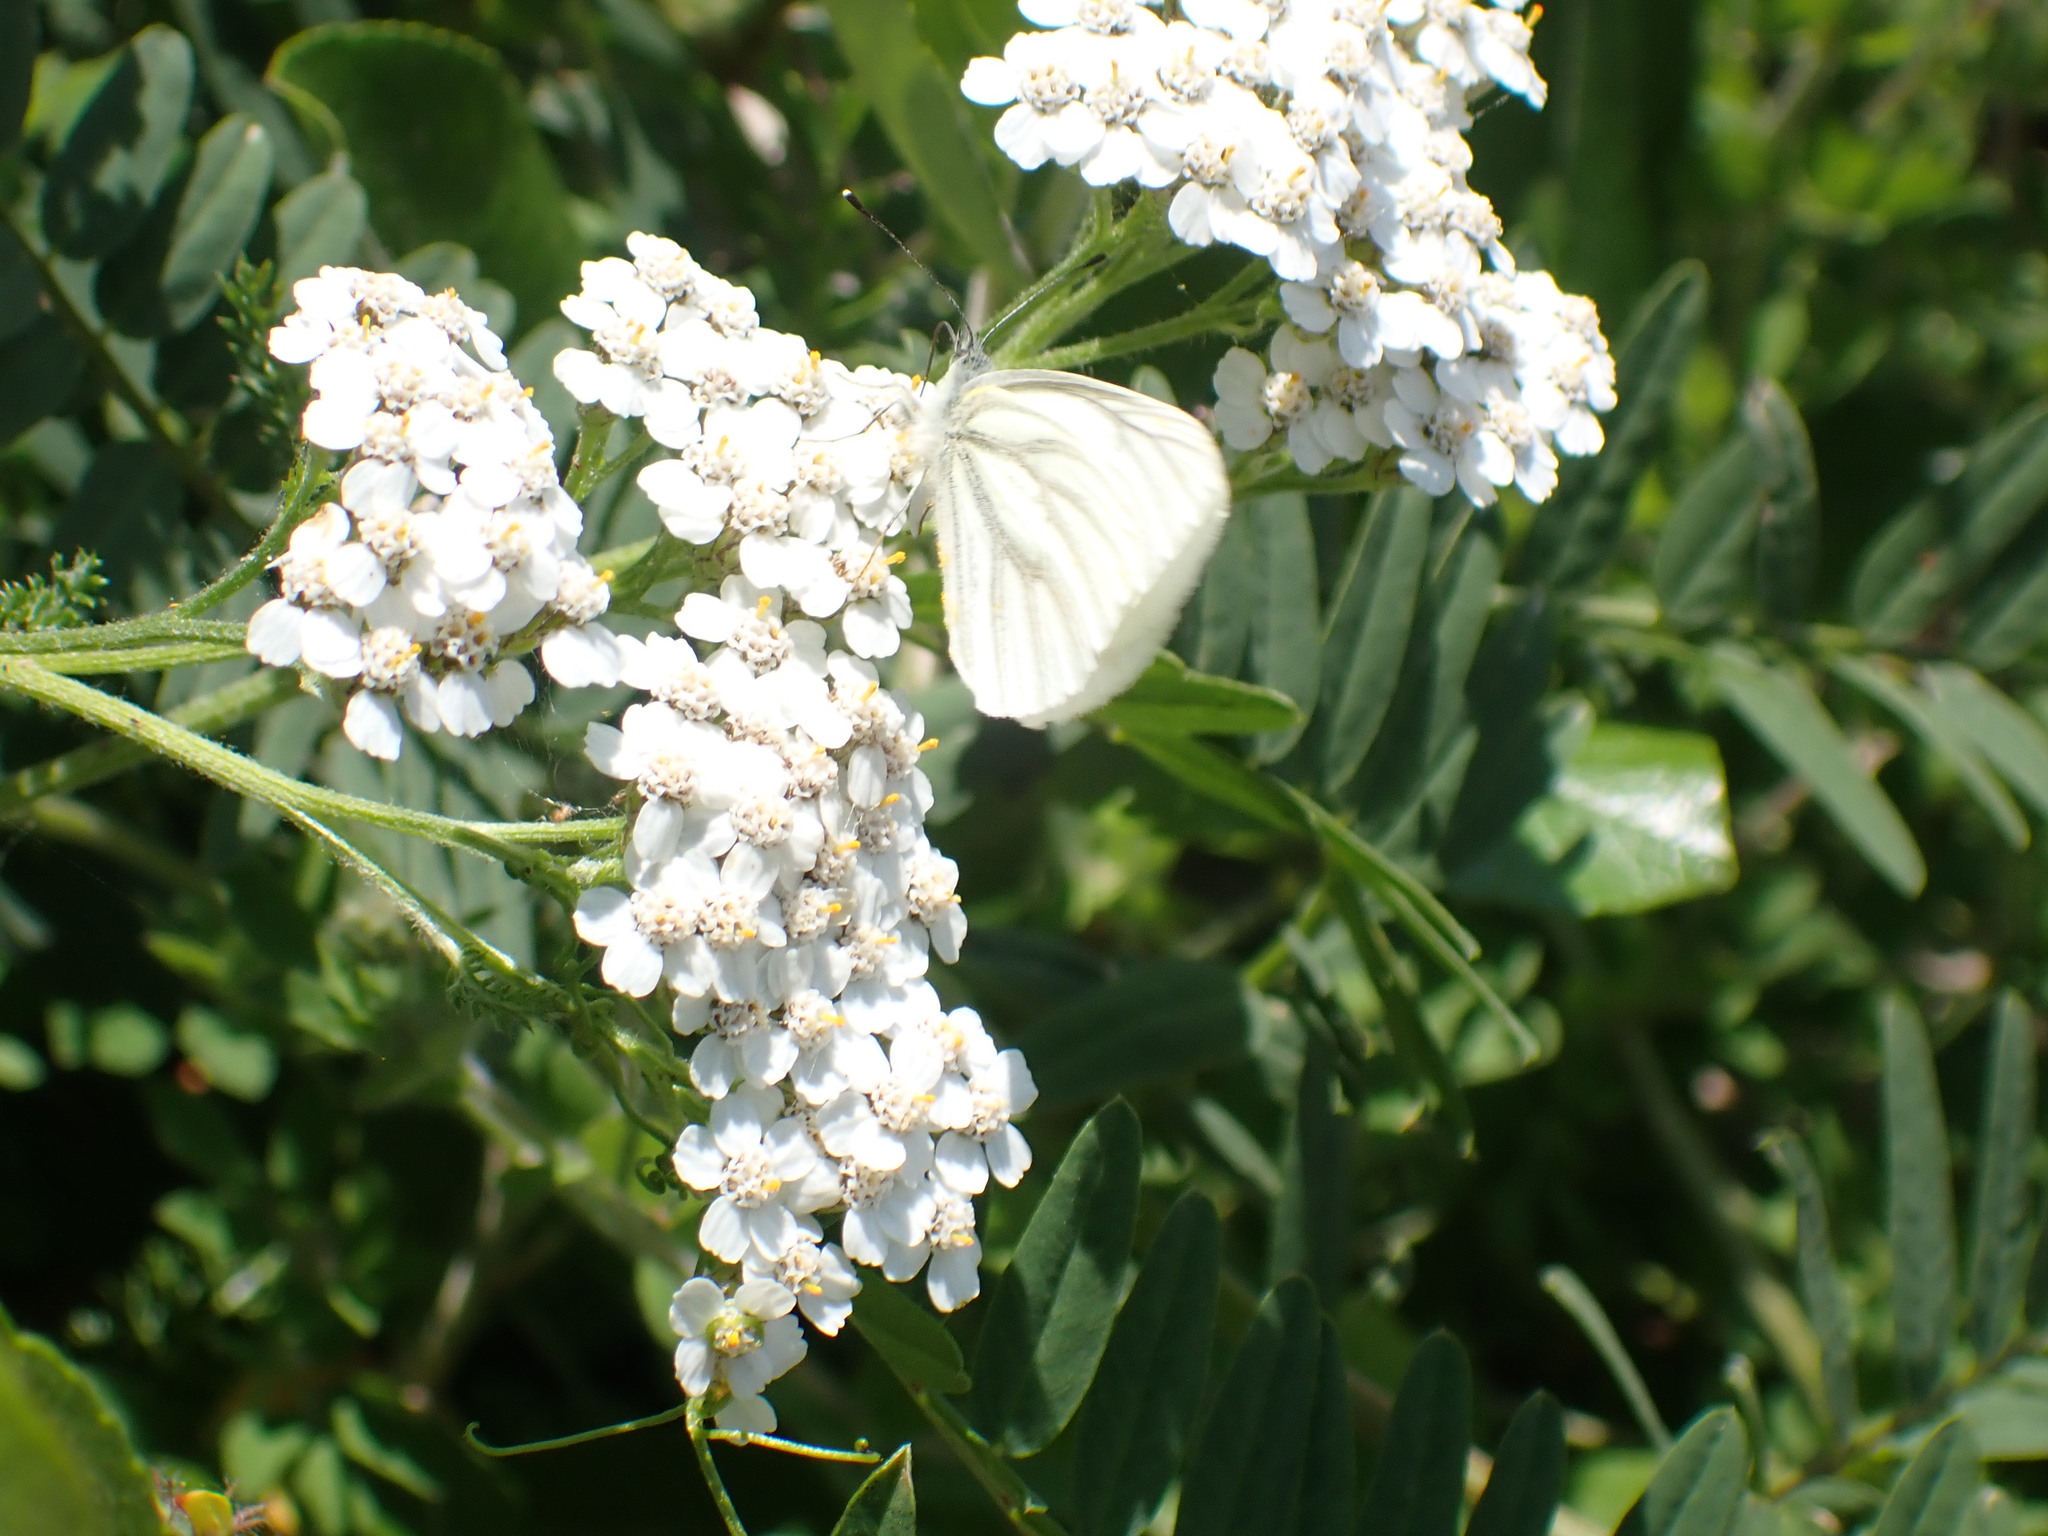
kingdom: Animalia
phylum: Arthropoda
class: Insecta
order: Lepidoptera
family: Pieridae
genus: Pieris
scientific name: Pieris marginalis
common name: Margined white
